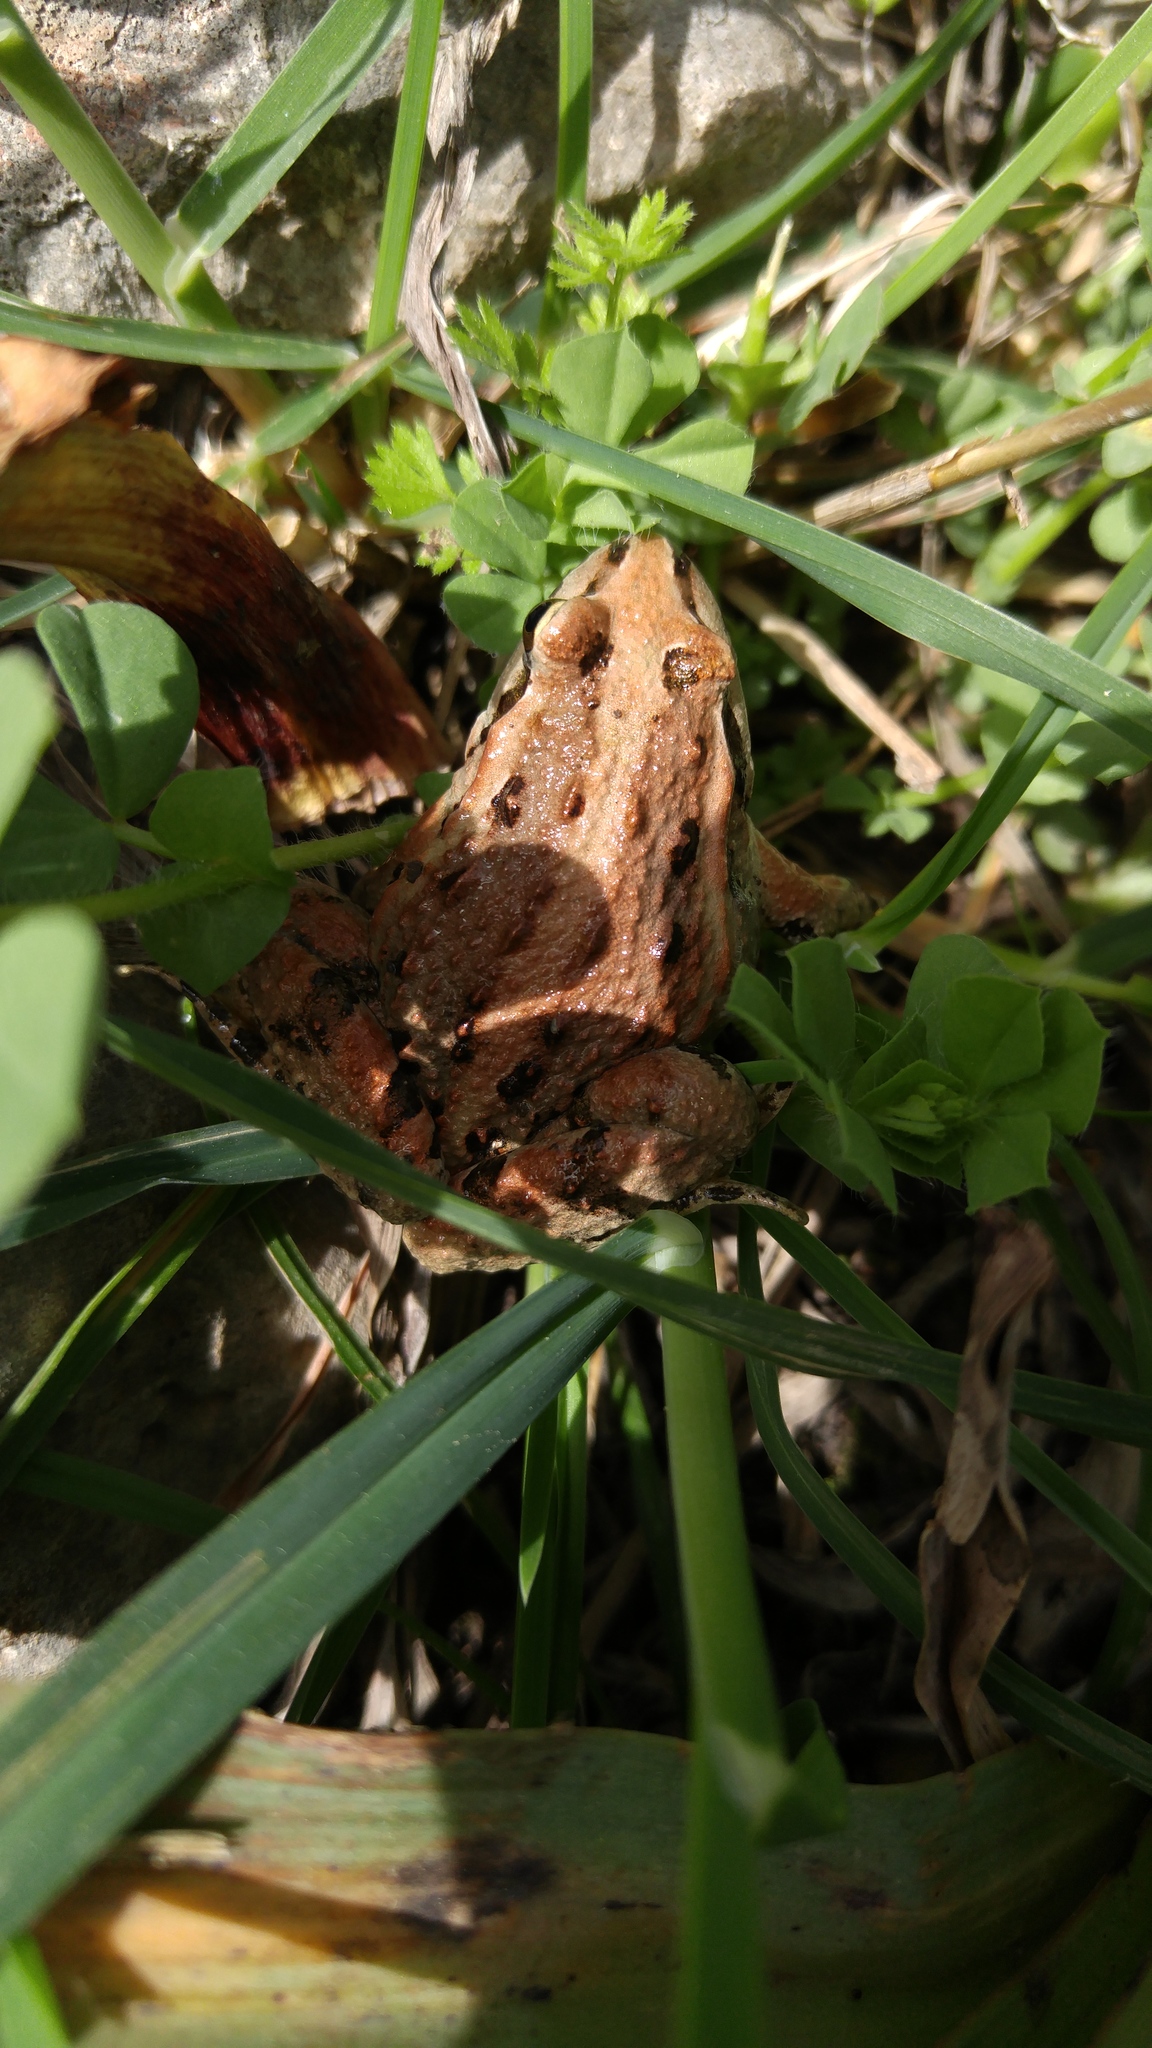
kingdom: Animalia
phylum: Chordata
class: Amphibia
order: Anura
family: Alytidae
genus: Discoglossus
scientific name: Discoglossus pictus
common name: Painted frog
